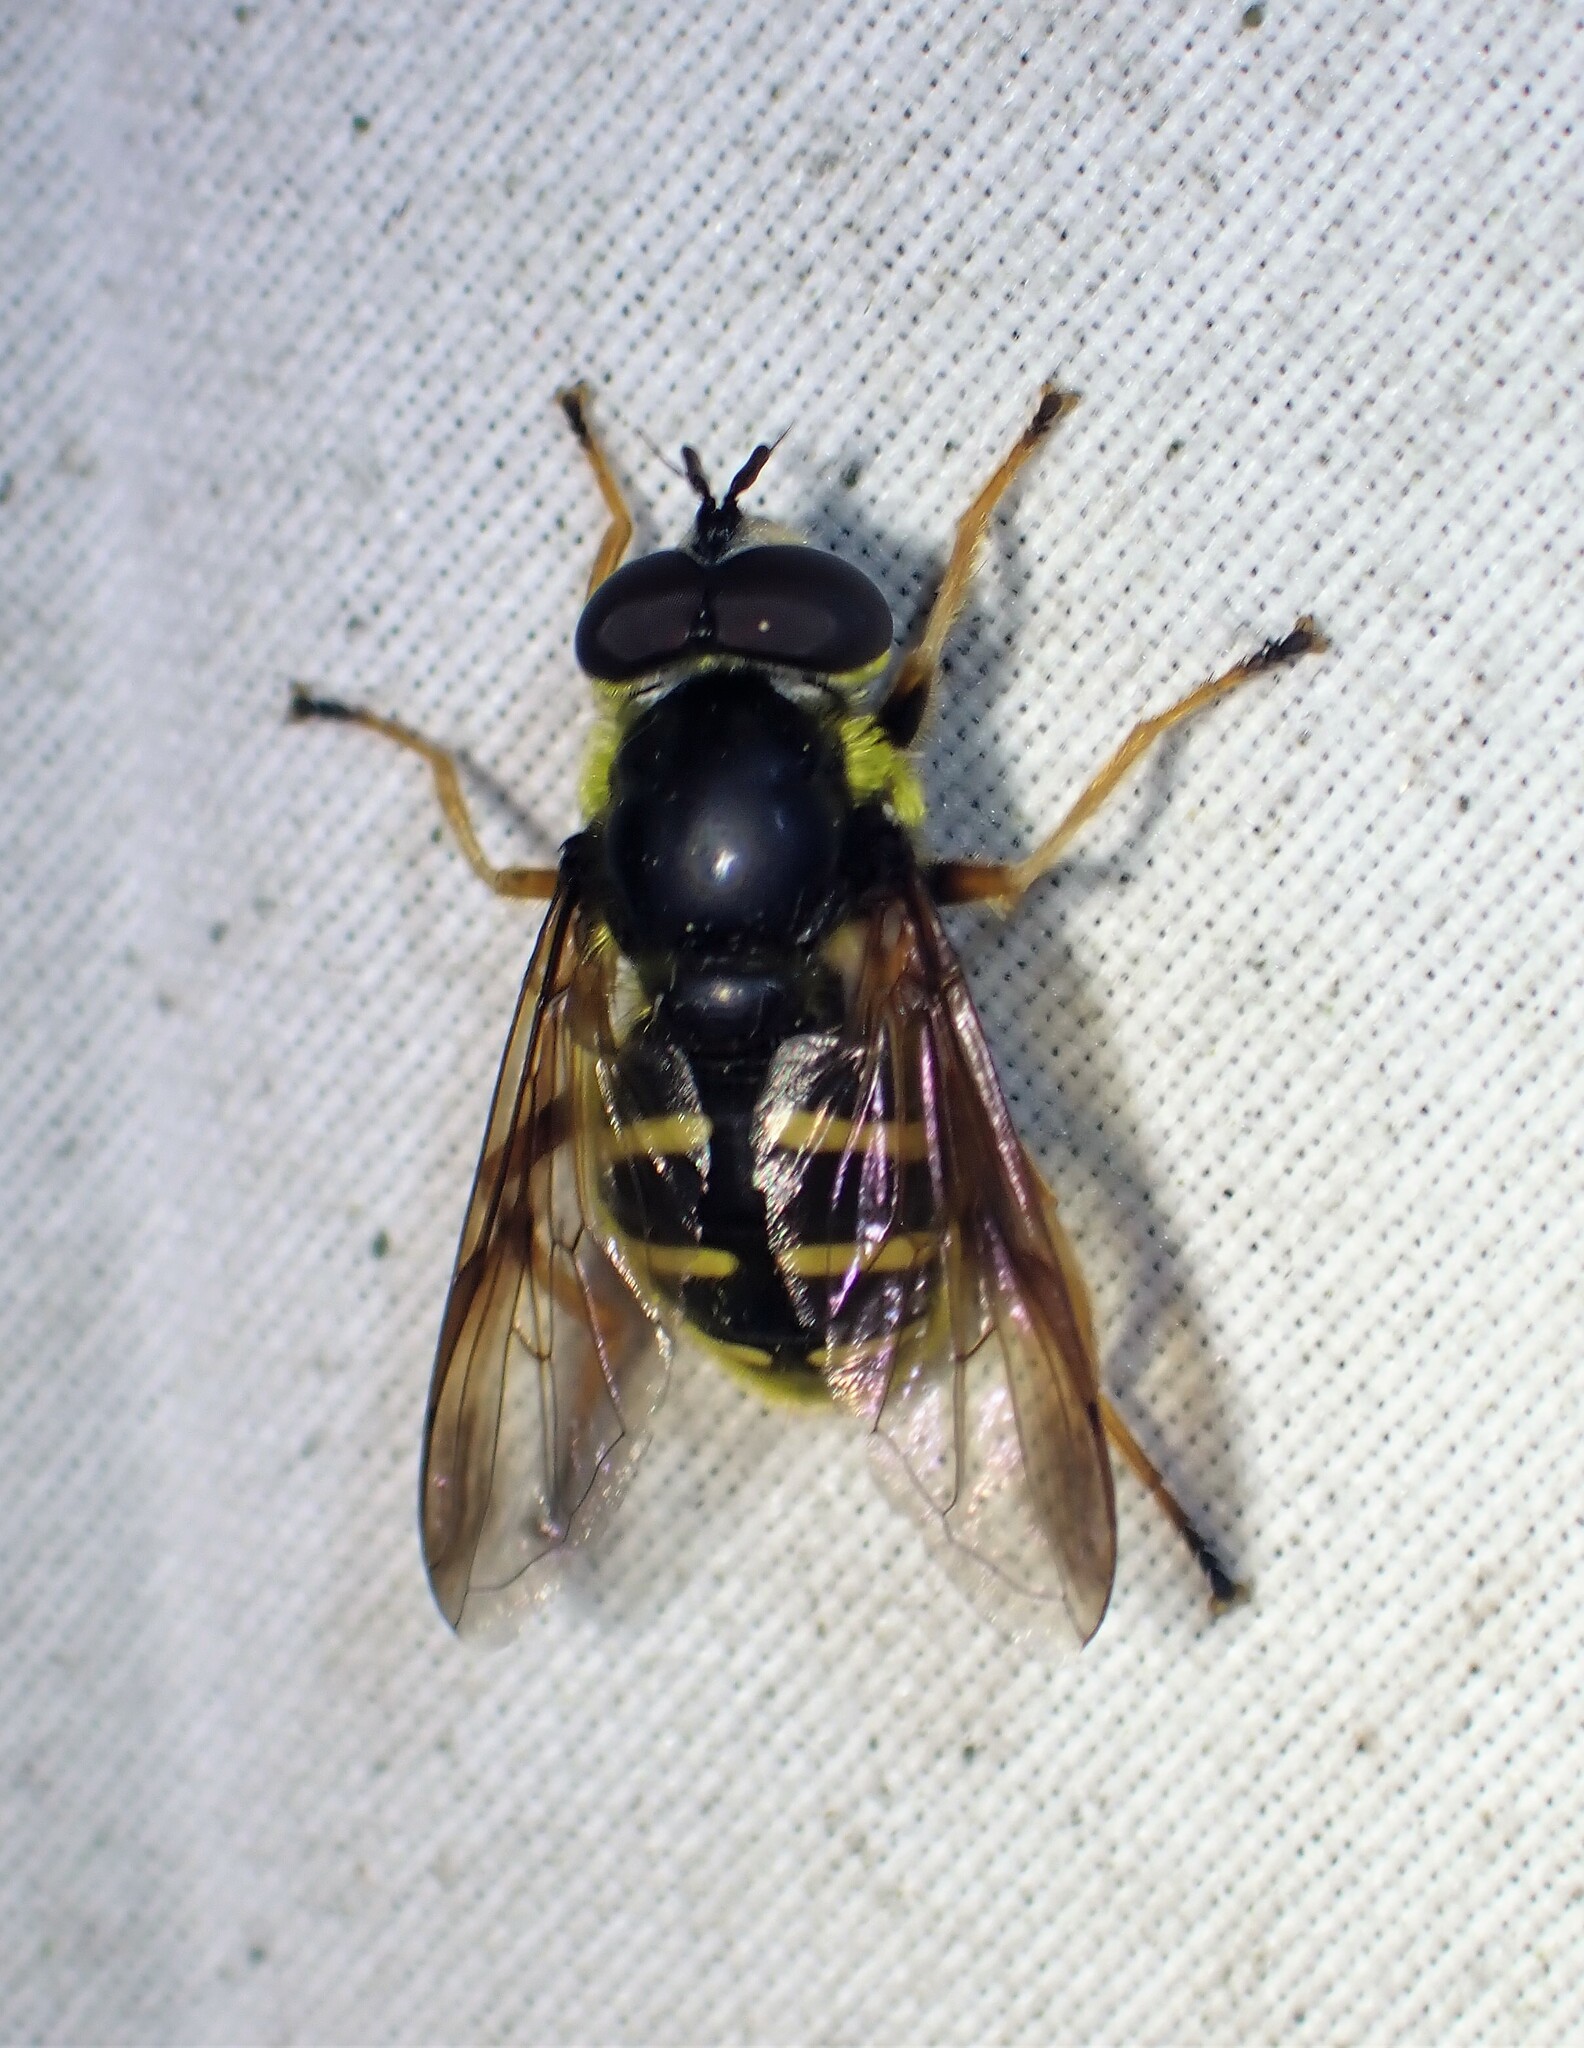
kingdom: Animalia
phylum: Arthropoda
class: Insecta
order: Diptera
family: Syrphidae
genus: Sericomyia
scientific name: Sericomyia chrysotoxoides
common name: Oblique-banded pond fly
